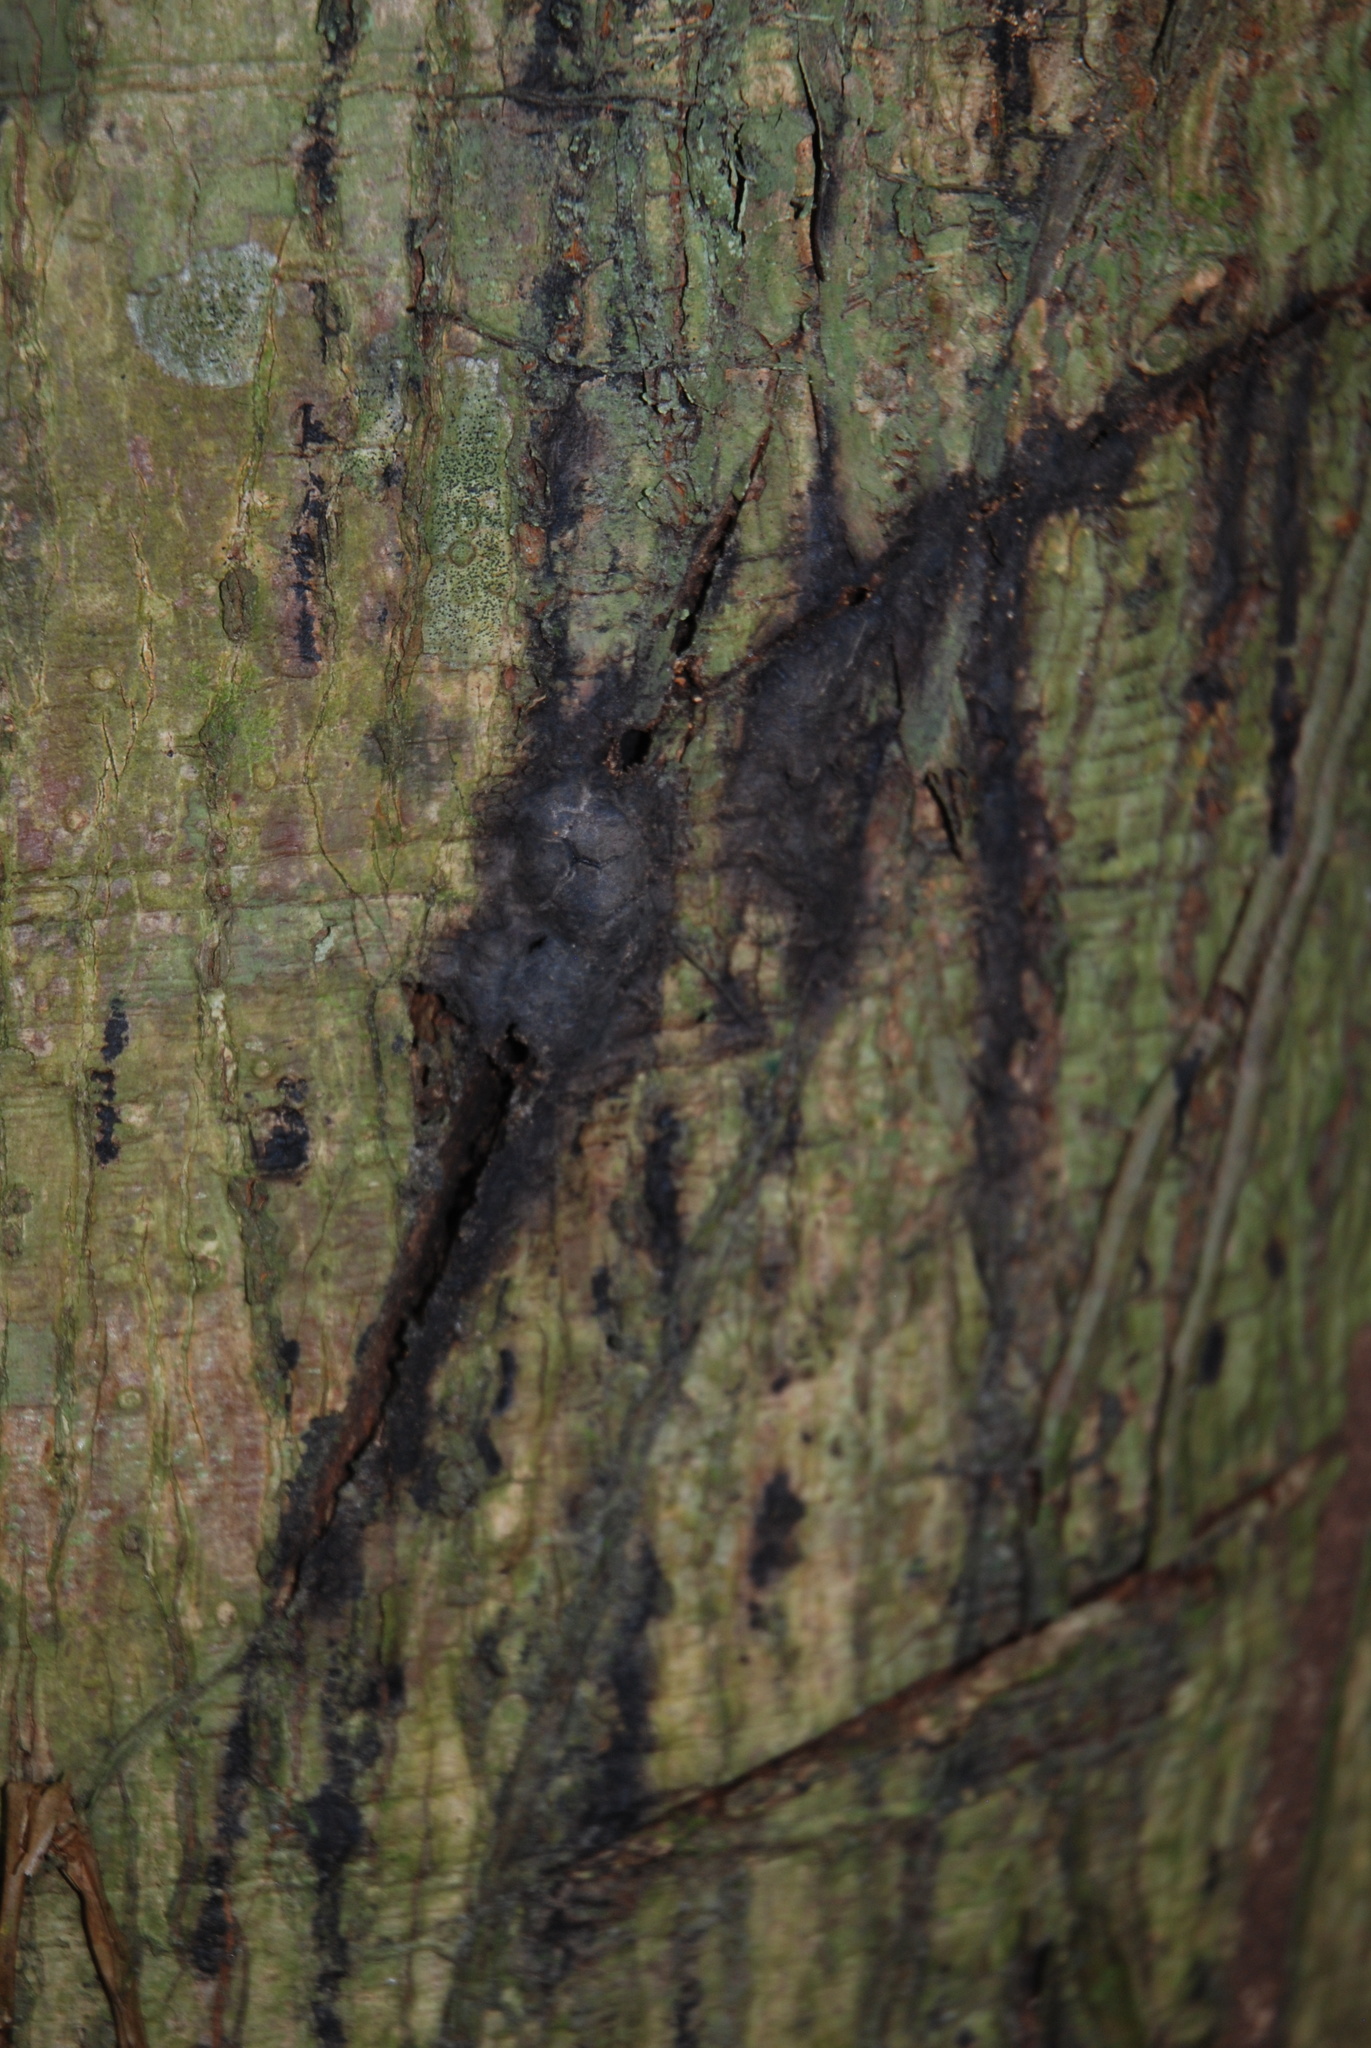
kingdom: Plantae
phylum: Tracheophyta
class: Magnoliopsida
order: Rosales
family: Moraceae
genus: Castilla
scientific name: Castilla elastica
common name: Castilla rubber
